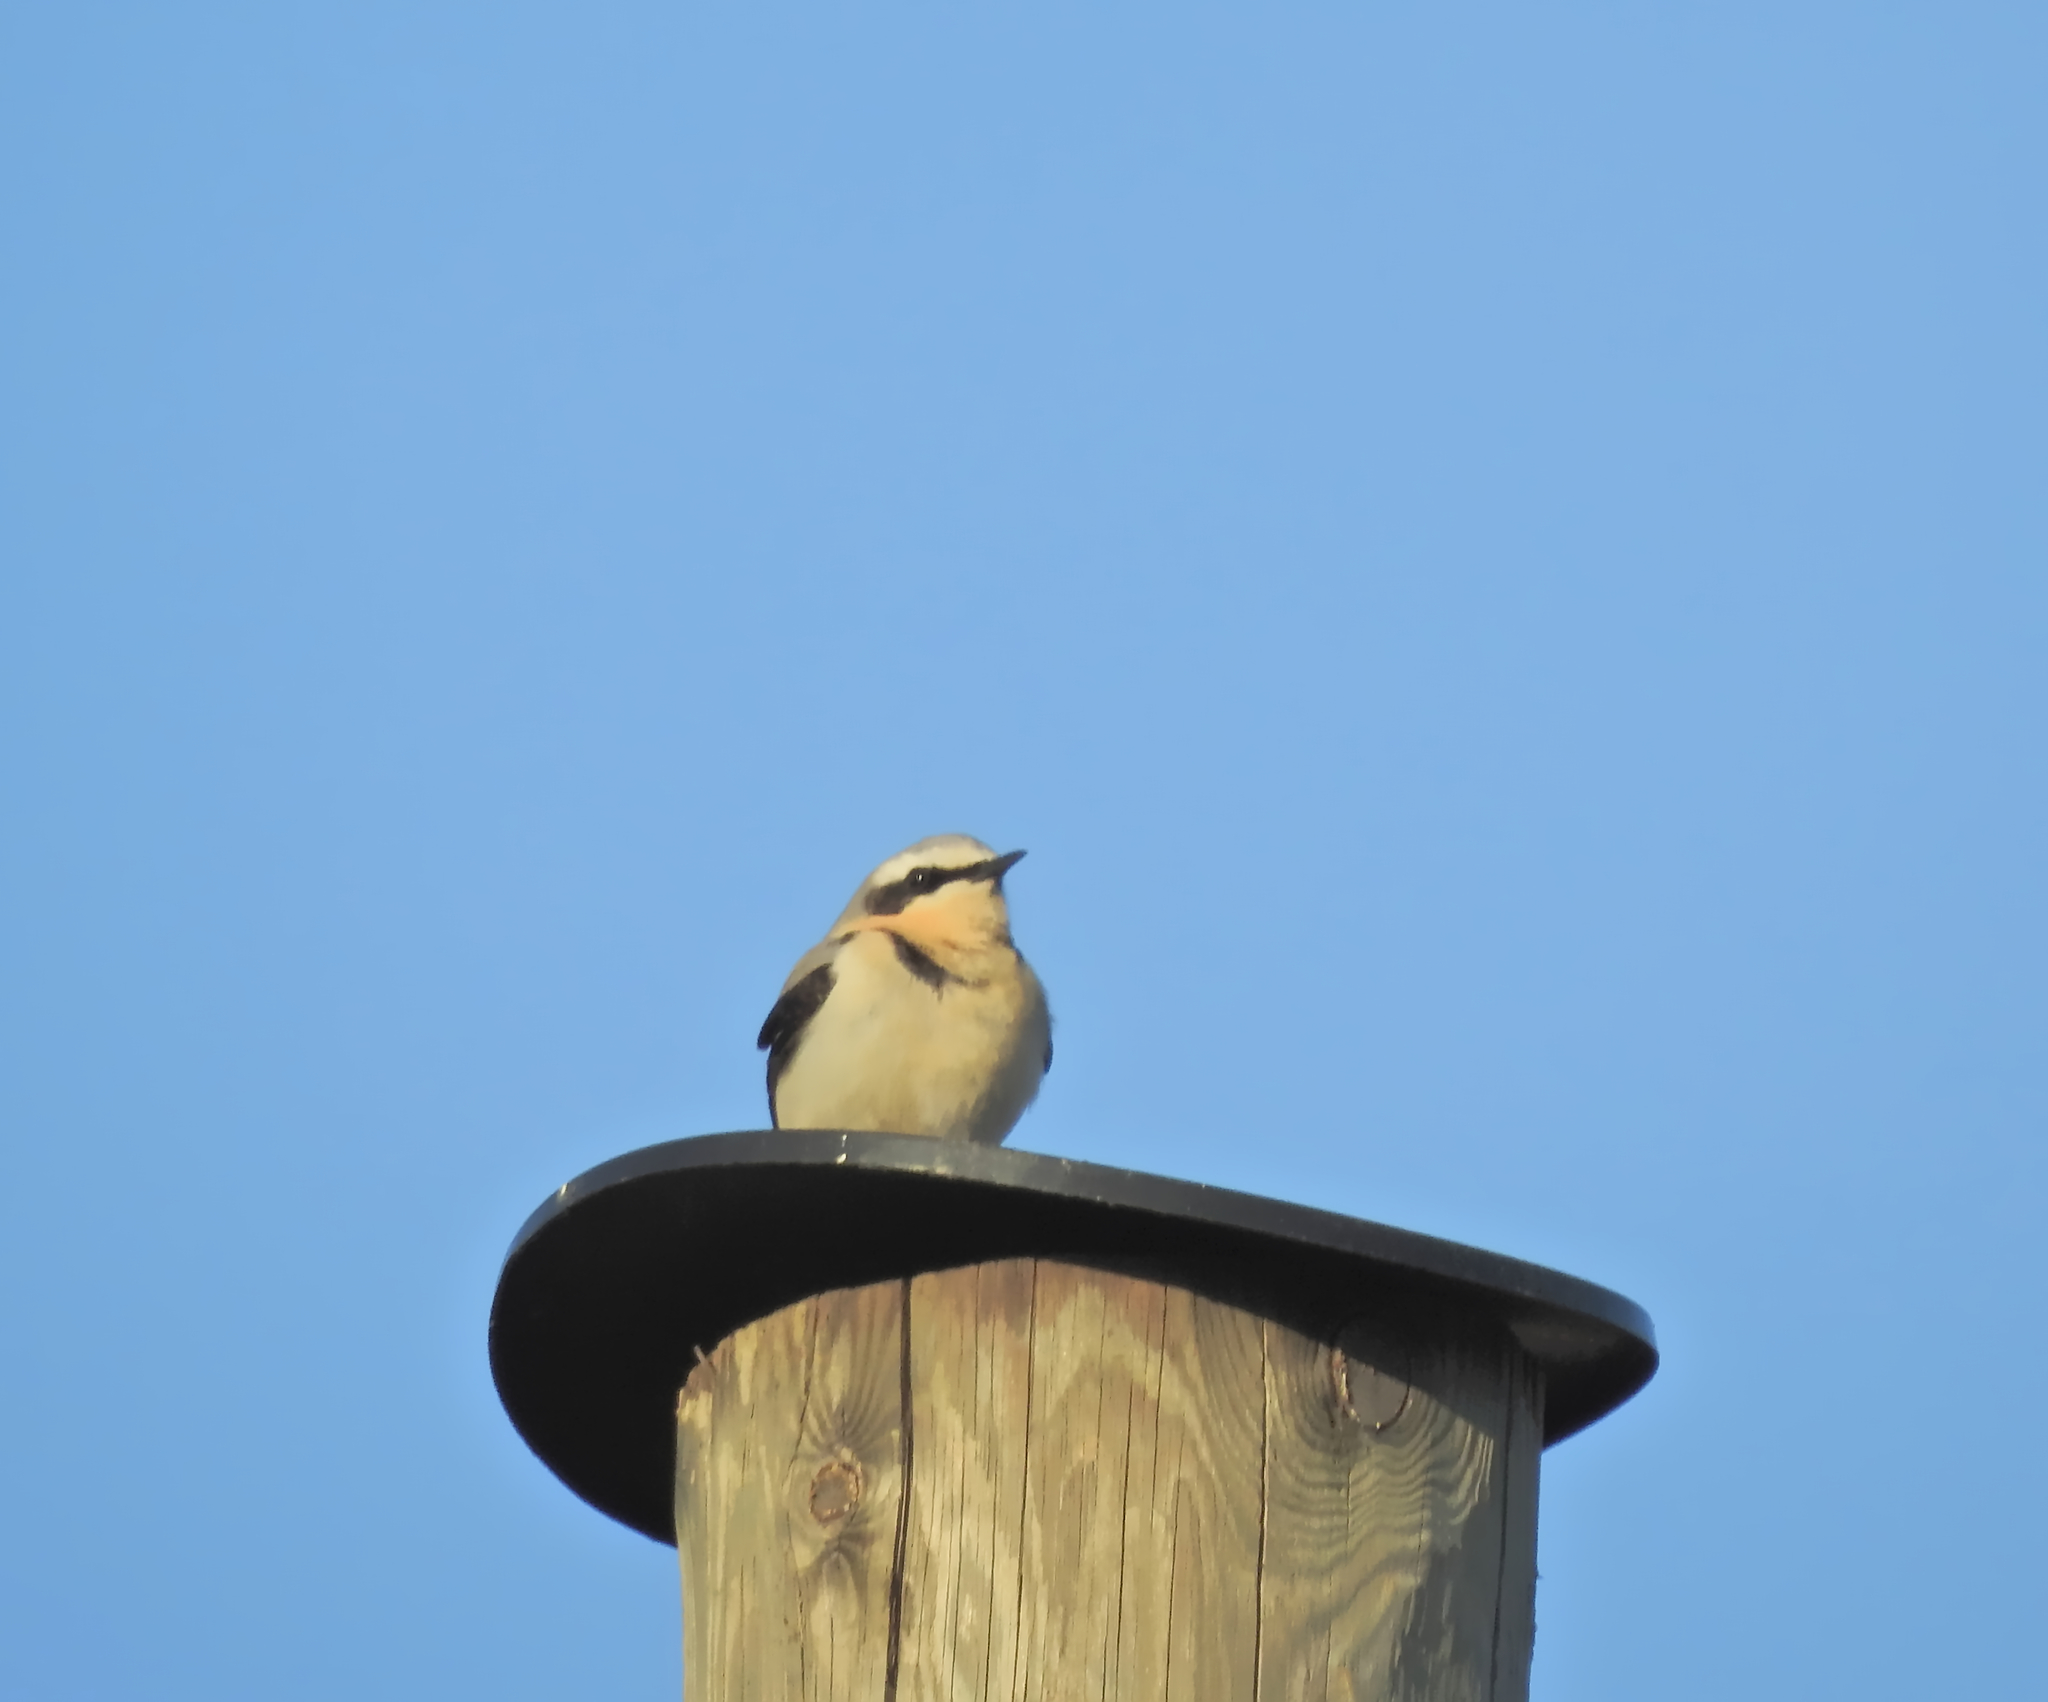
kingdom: Animalia
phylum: Chordata
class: Aves
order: Passeriformes
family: Muscicapidae
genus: Oenanthe
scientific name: Oenanthe oenanthe
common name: Northern wheatear
